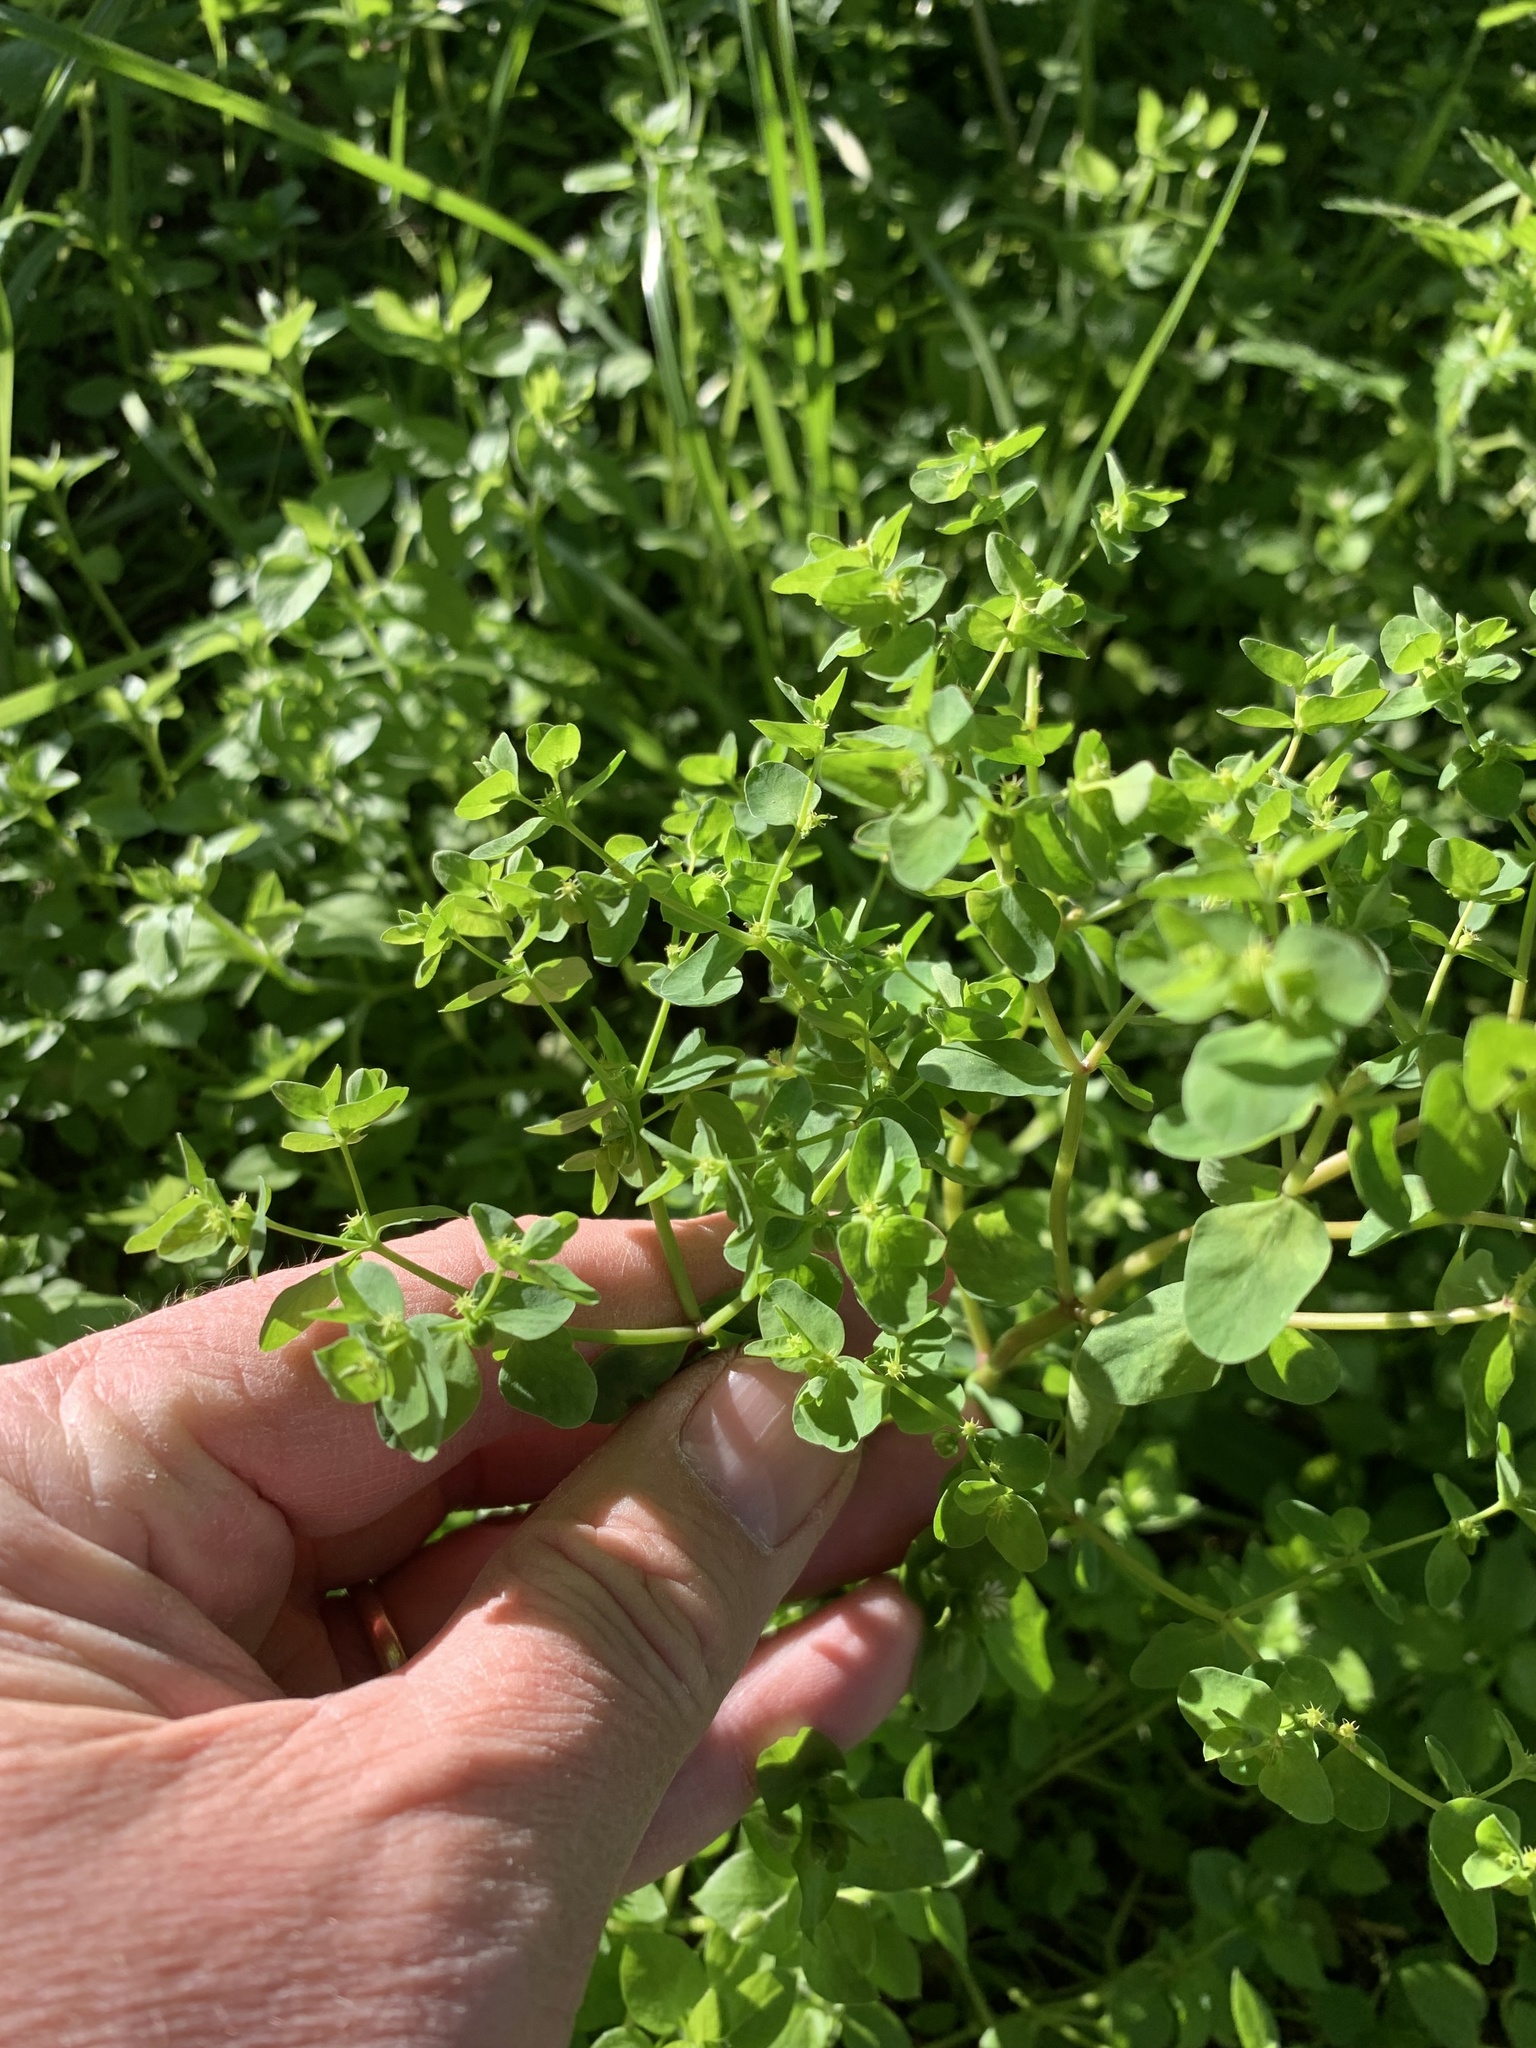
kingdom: Plantae
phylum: Tracheophyta
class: Magnoliopsida
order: Malpighiales
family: Euphorbiaceae
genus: Euphorbia
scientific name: Euphorbia peplus
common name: Petty spurge
